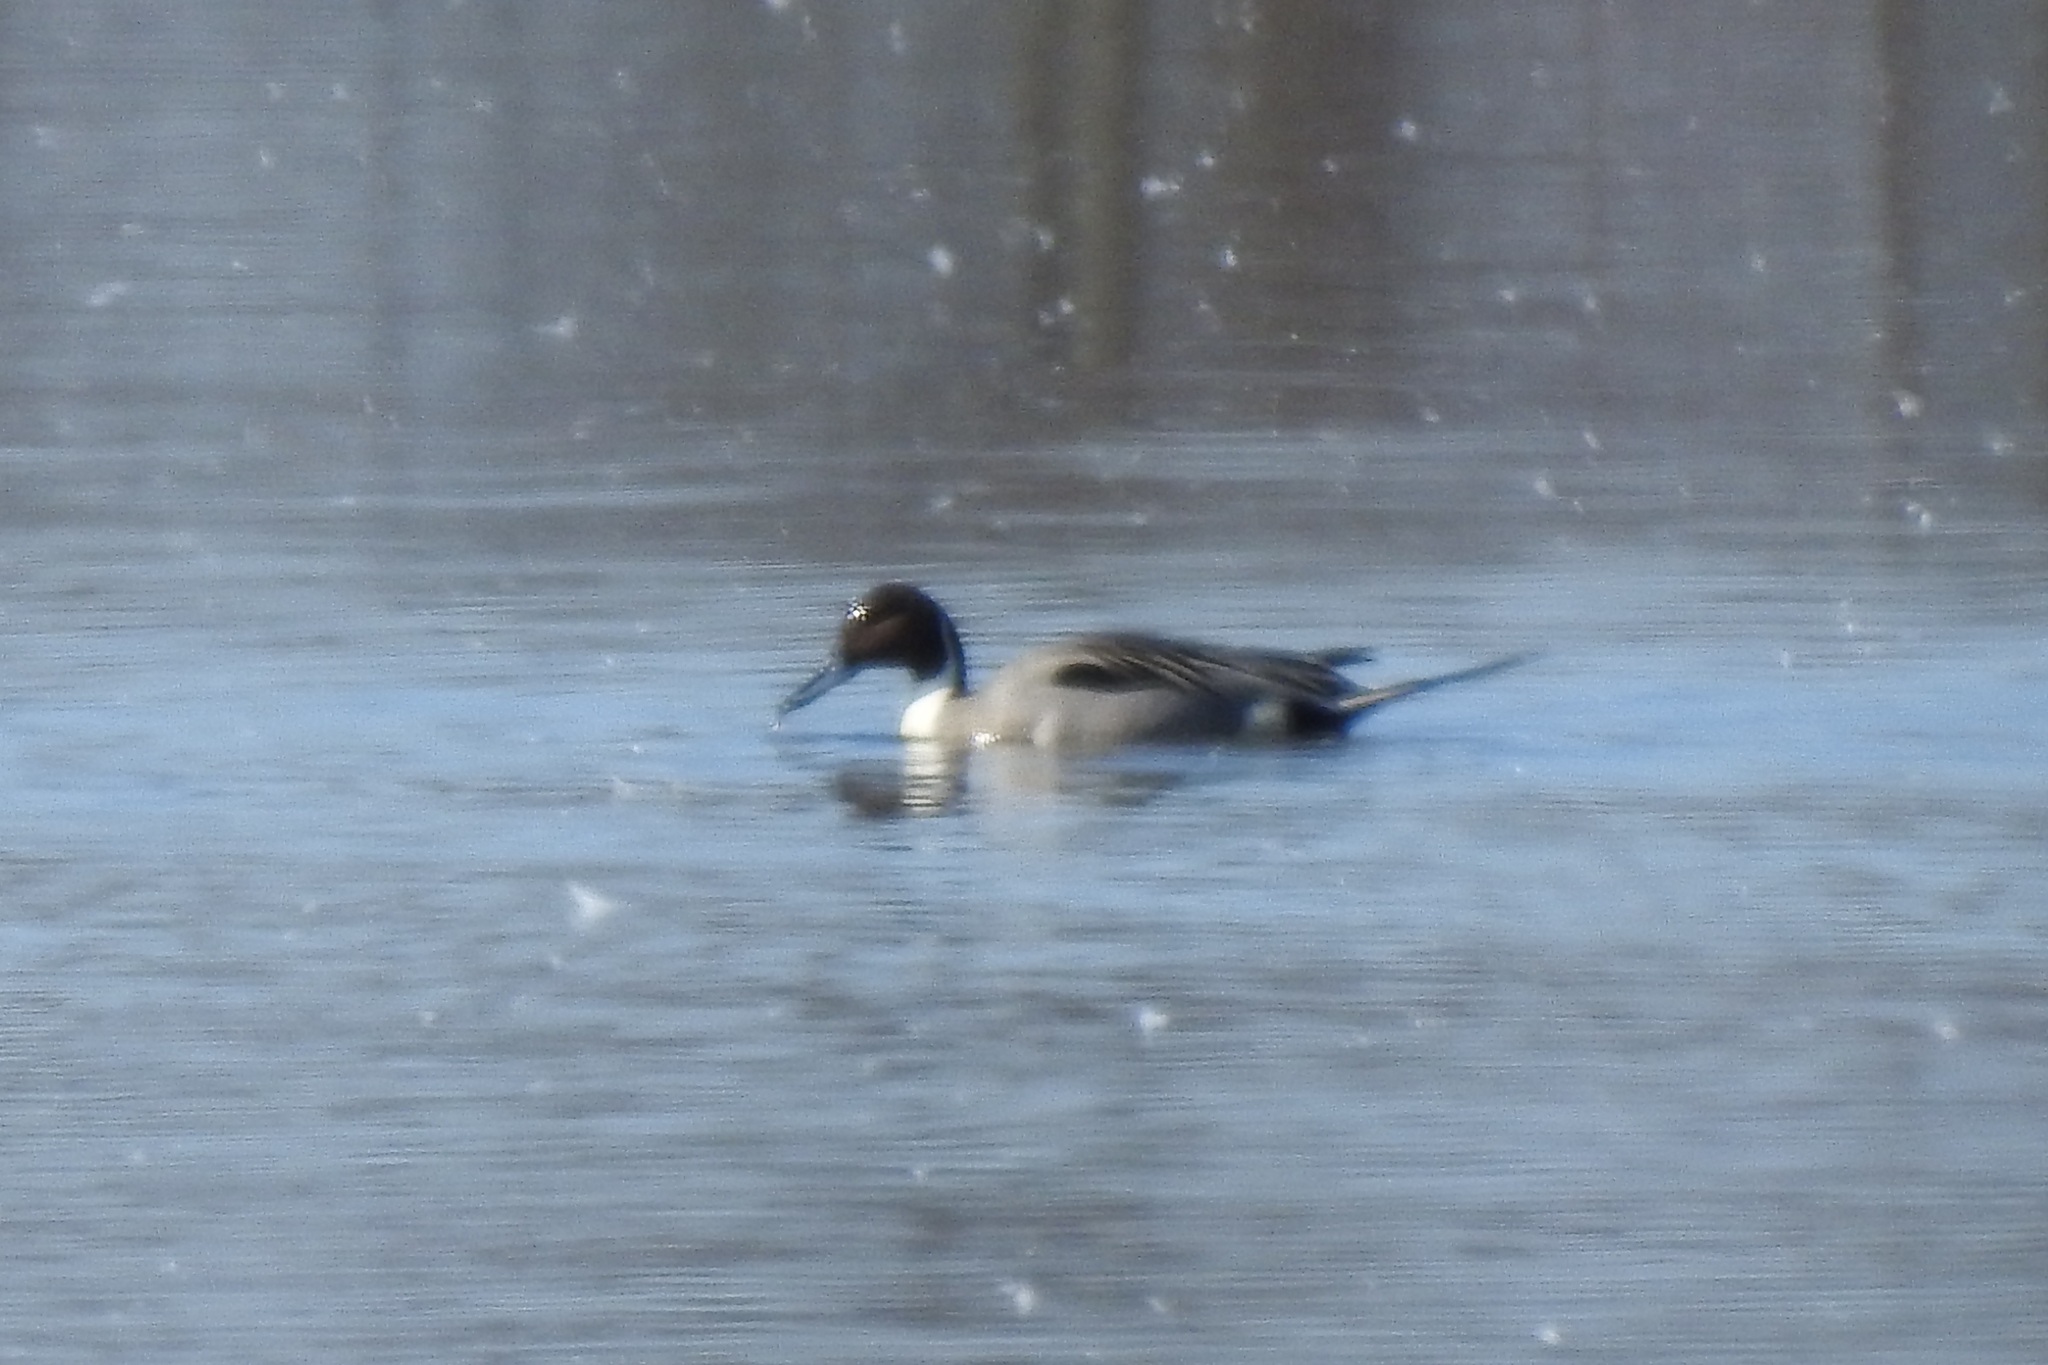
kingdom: Animalia
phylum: Chordata
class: Aves
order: Anseriformes
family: Anatidae
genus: Anas
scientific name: Anas acuta
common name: Northern pintail
